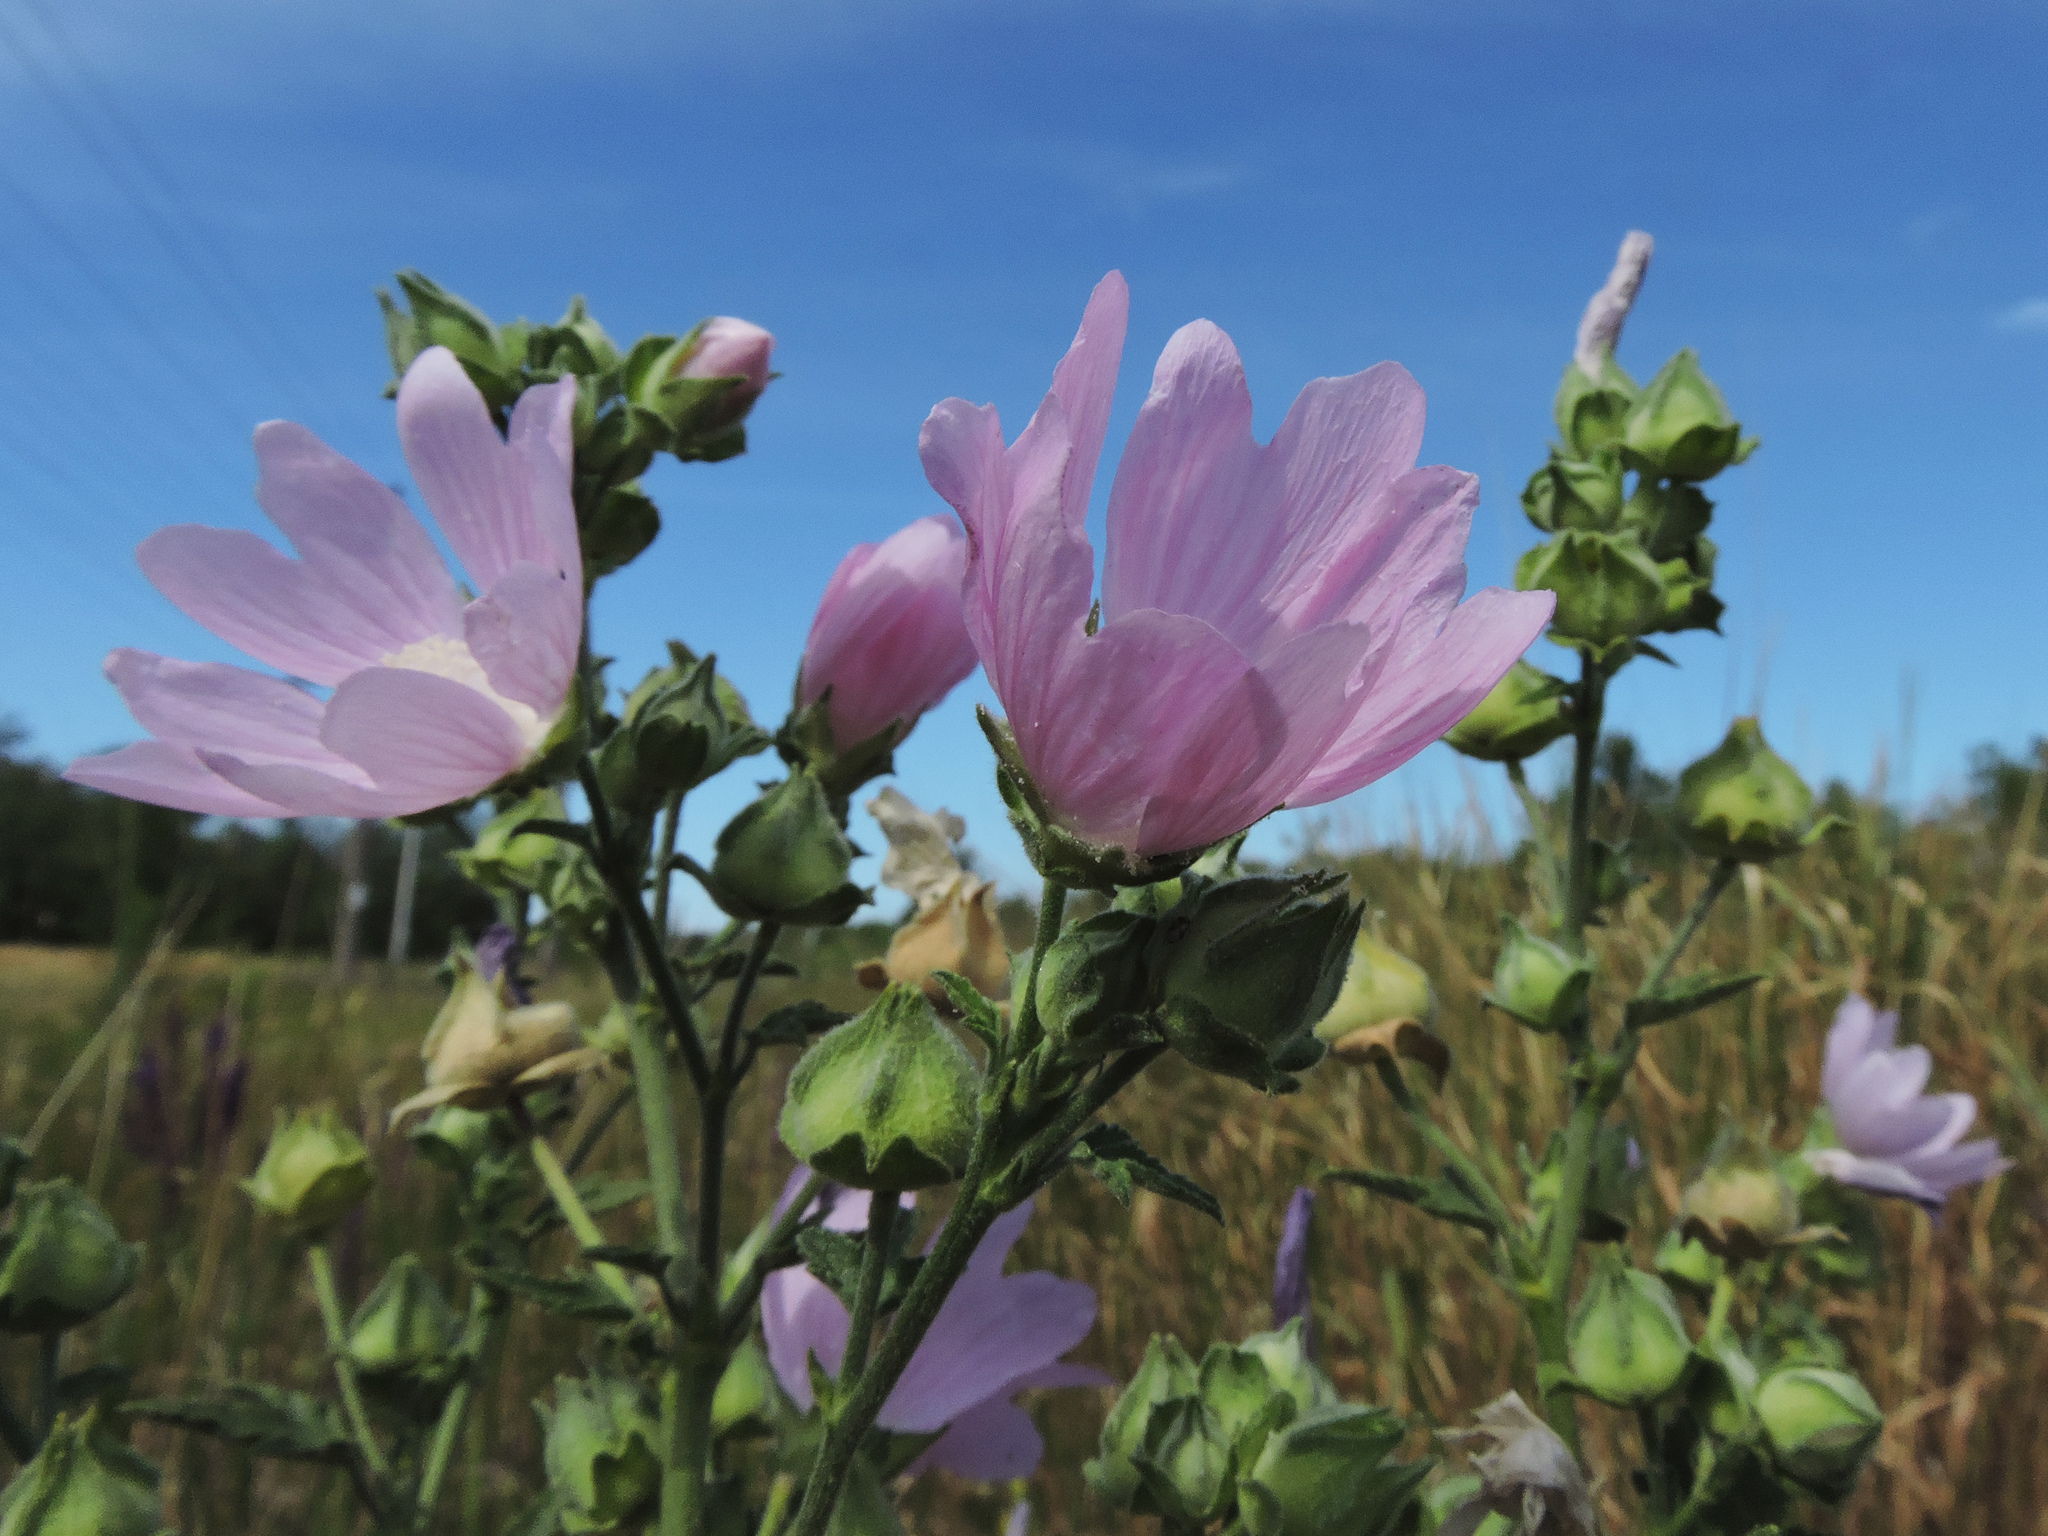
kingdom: Plantae
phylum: Tracheophyta
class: Magnoliopsida
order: Malvales
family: Malvaceae
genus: Malva
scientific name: Malva thuringiaca
